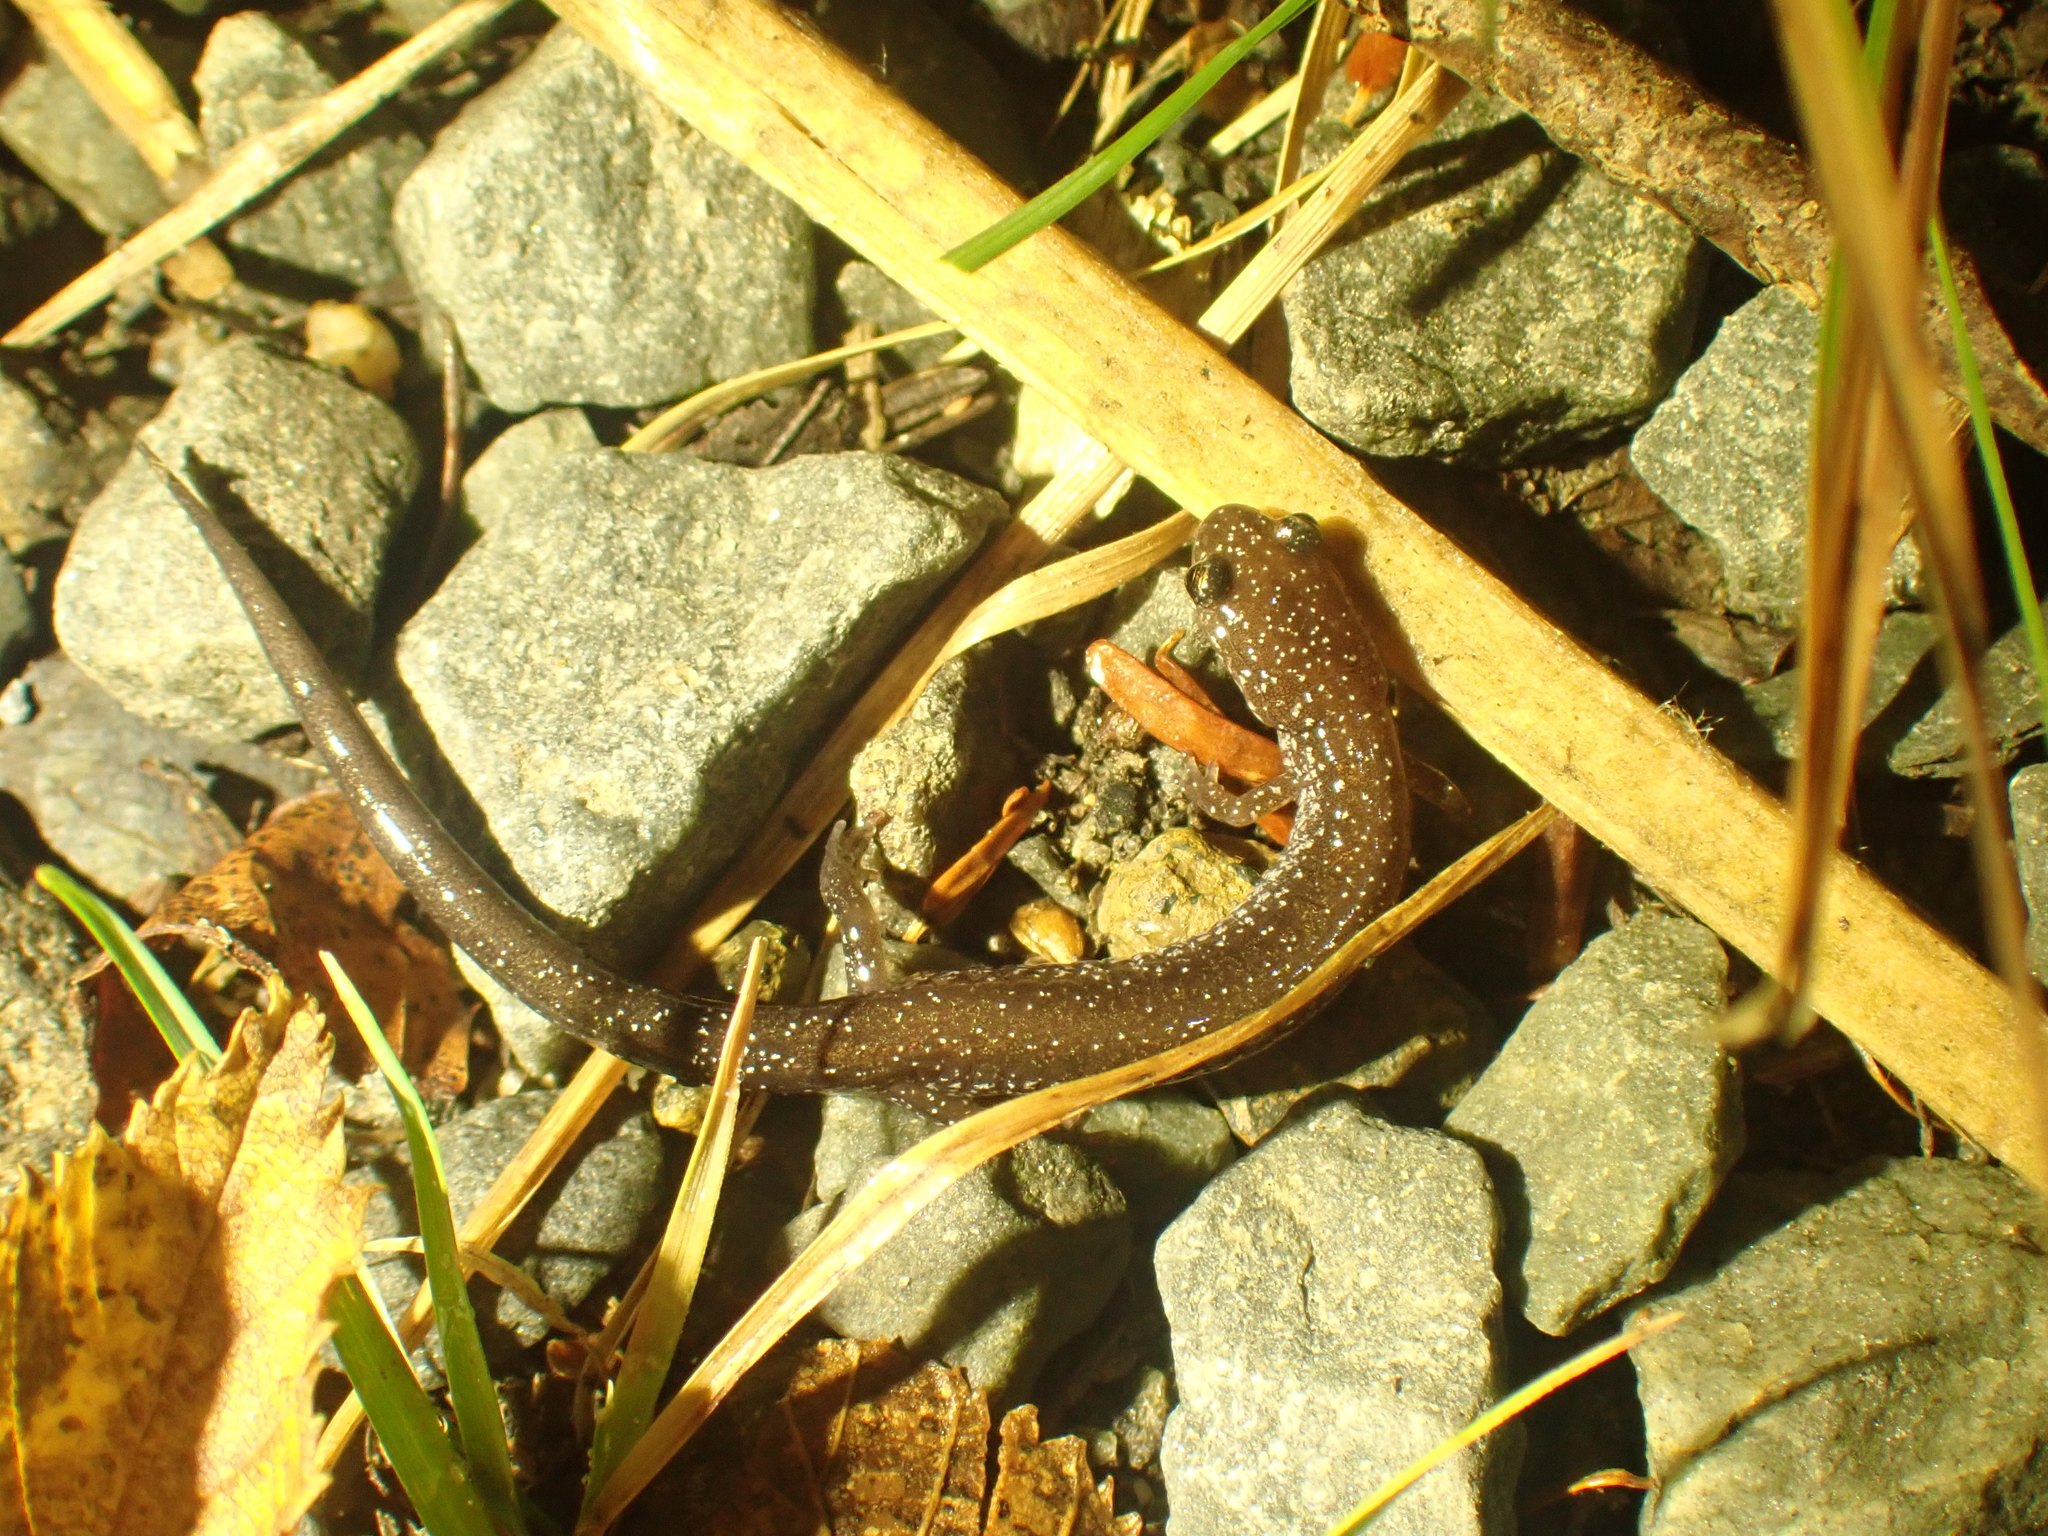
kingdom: Animalia
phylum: Chordata
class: Amphibia
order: Caudata
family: Plethodontidae
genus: Plethodon
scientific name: Plethodon cinereus
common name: Redback salamander
